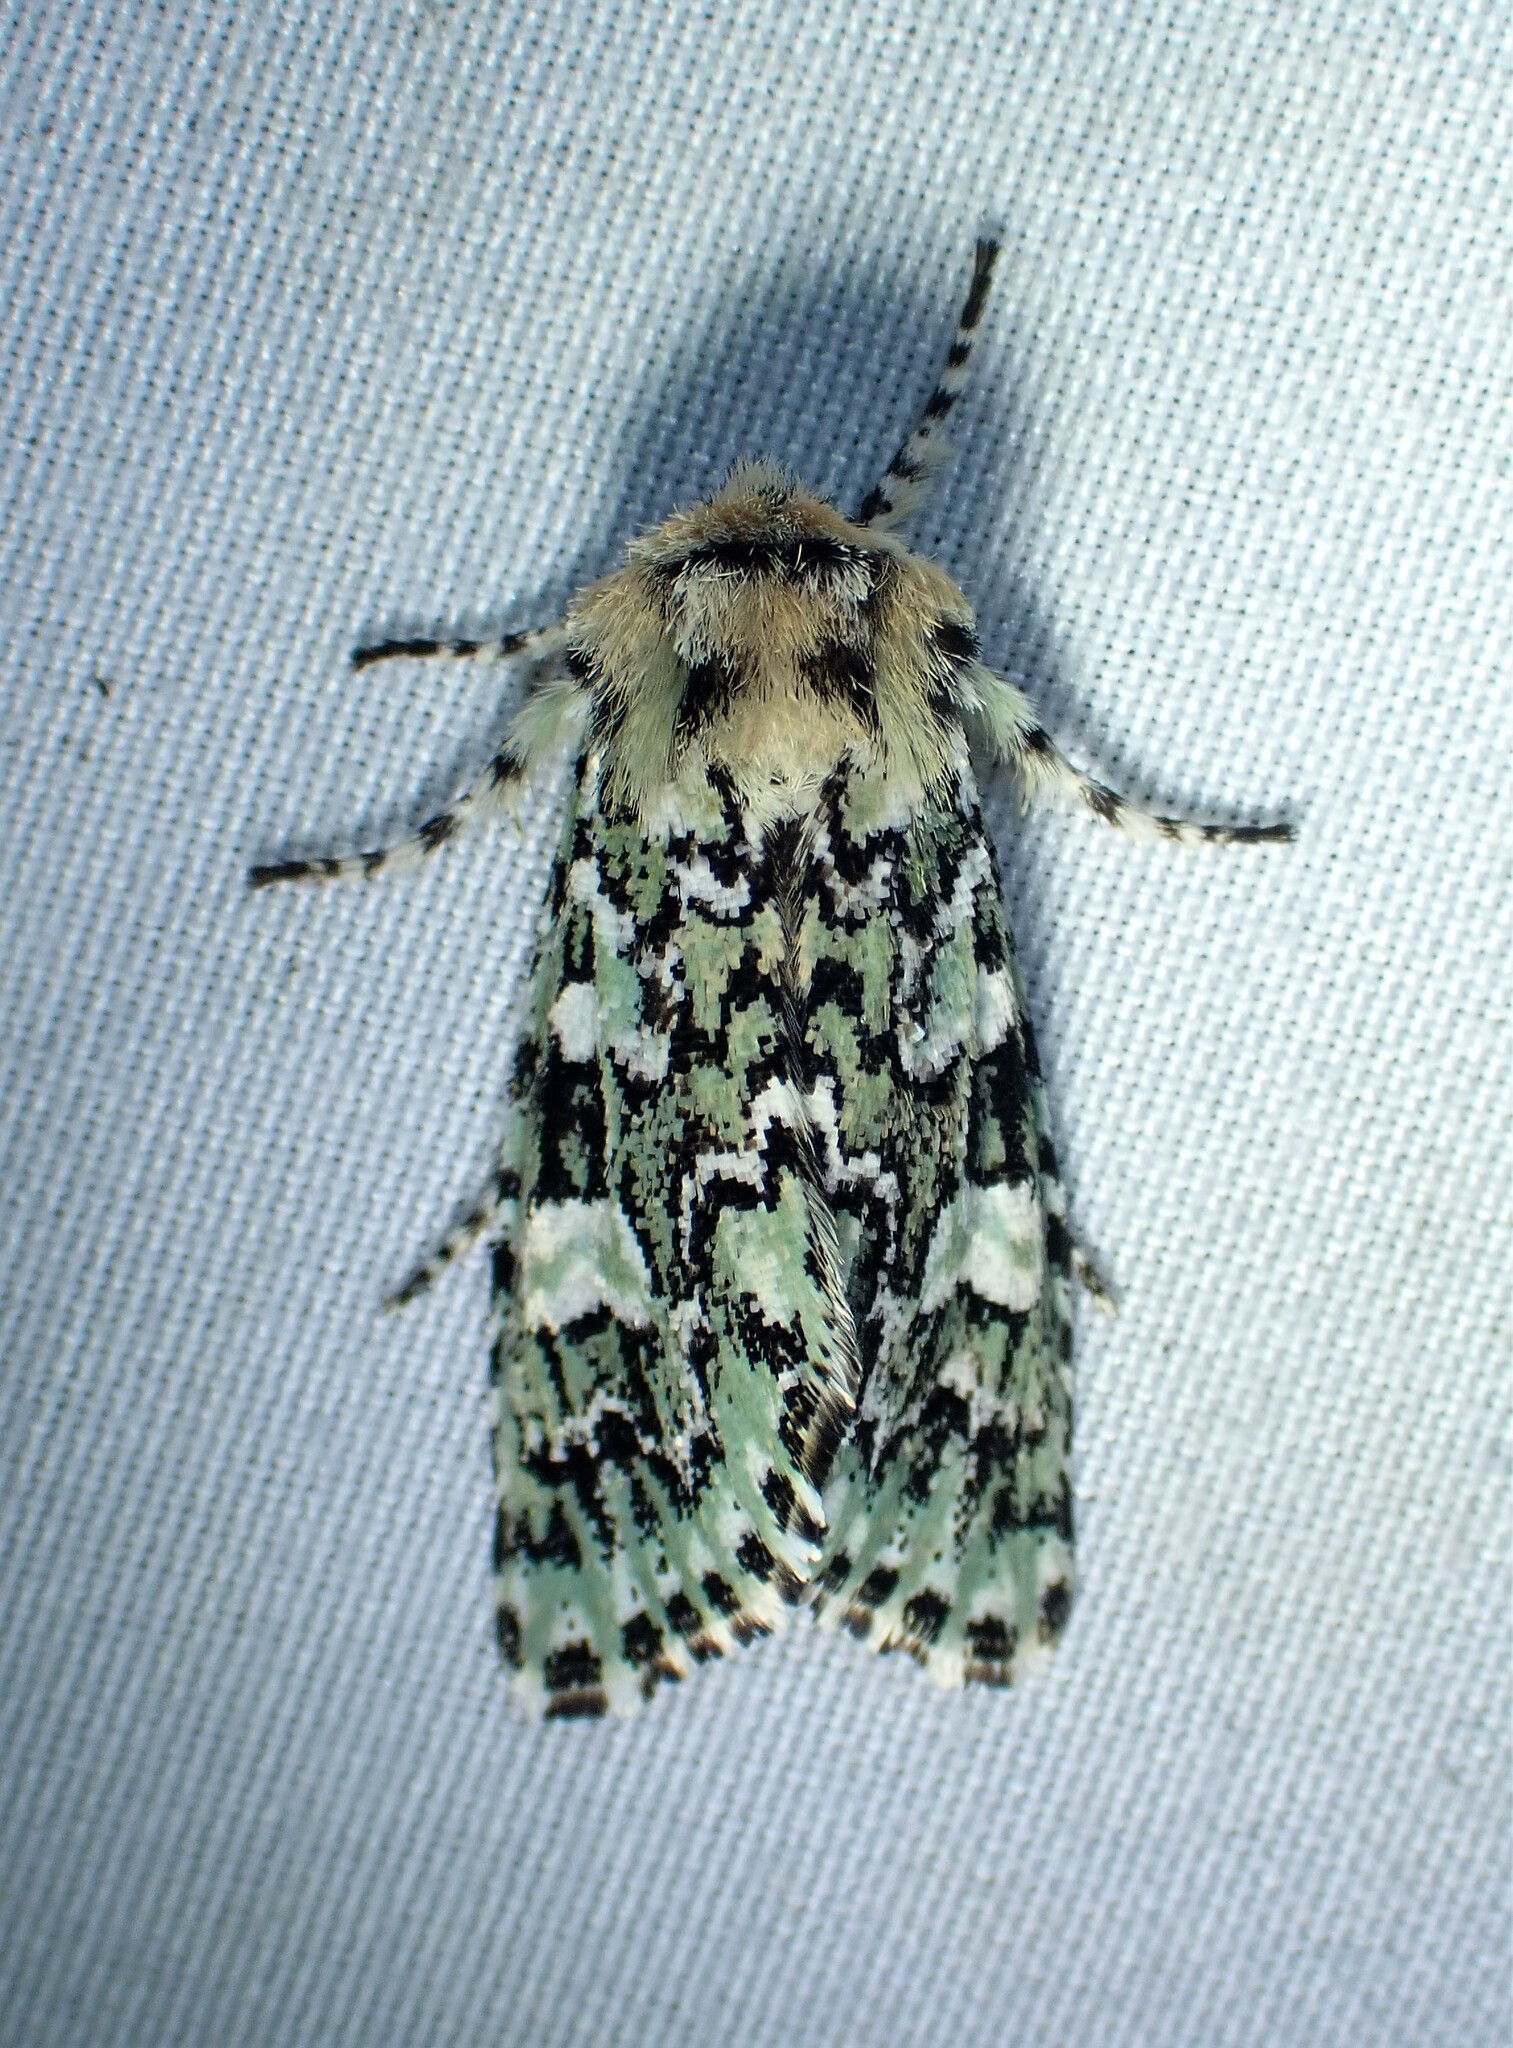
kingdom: Animalia
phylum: Arthropoda
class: Insecta
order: Lepidoptera
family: Noctuidae
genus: Feralia
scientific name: Feralia jocosa
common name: Joker
